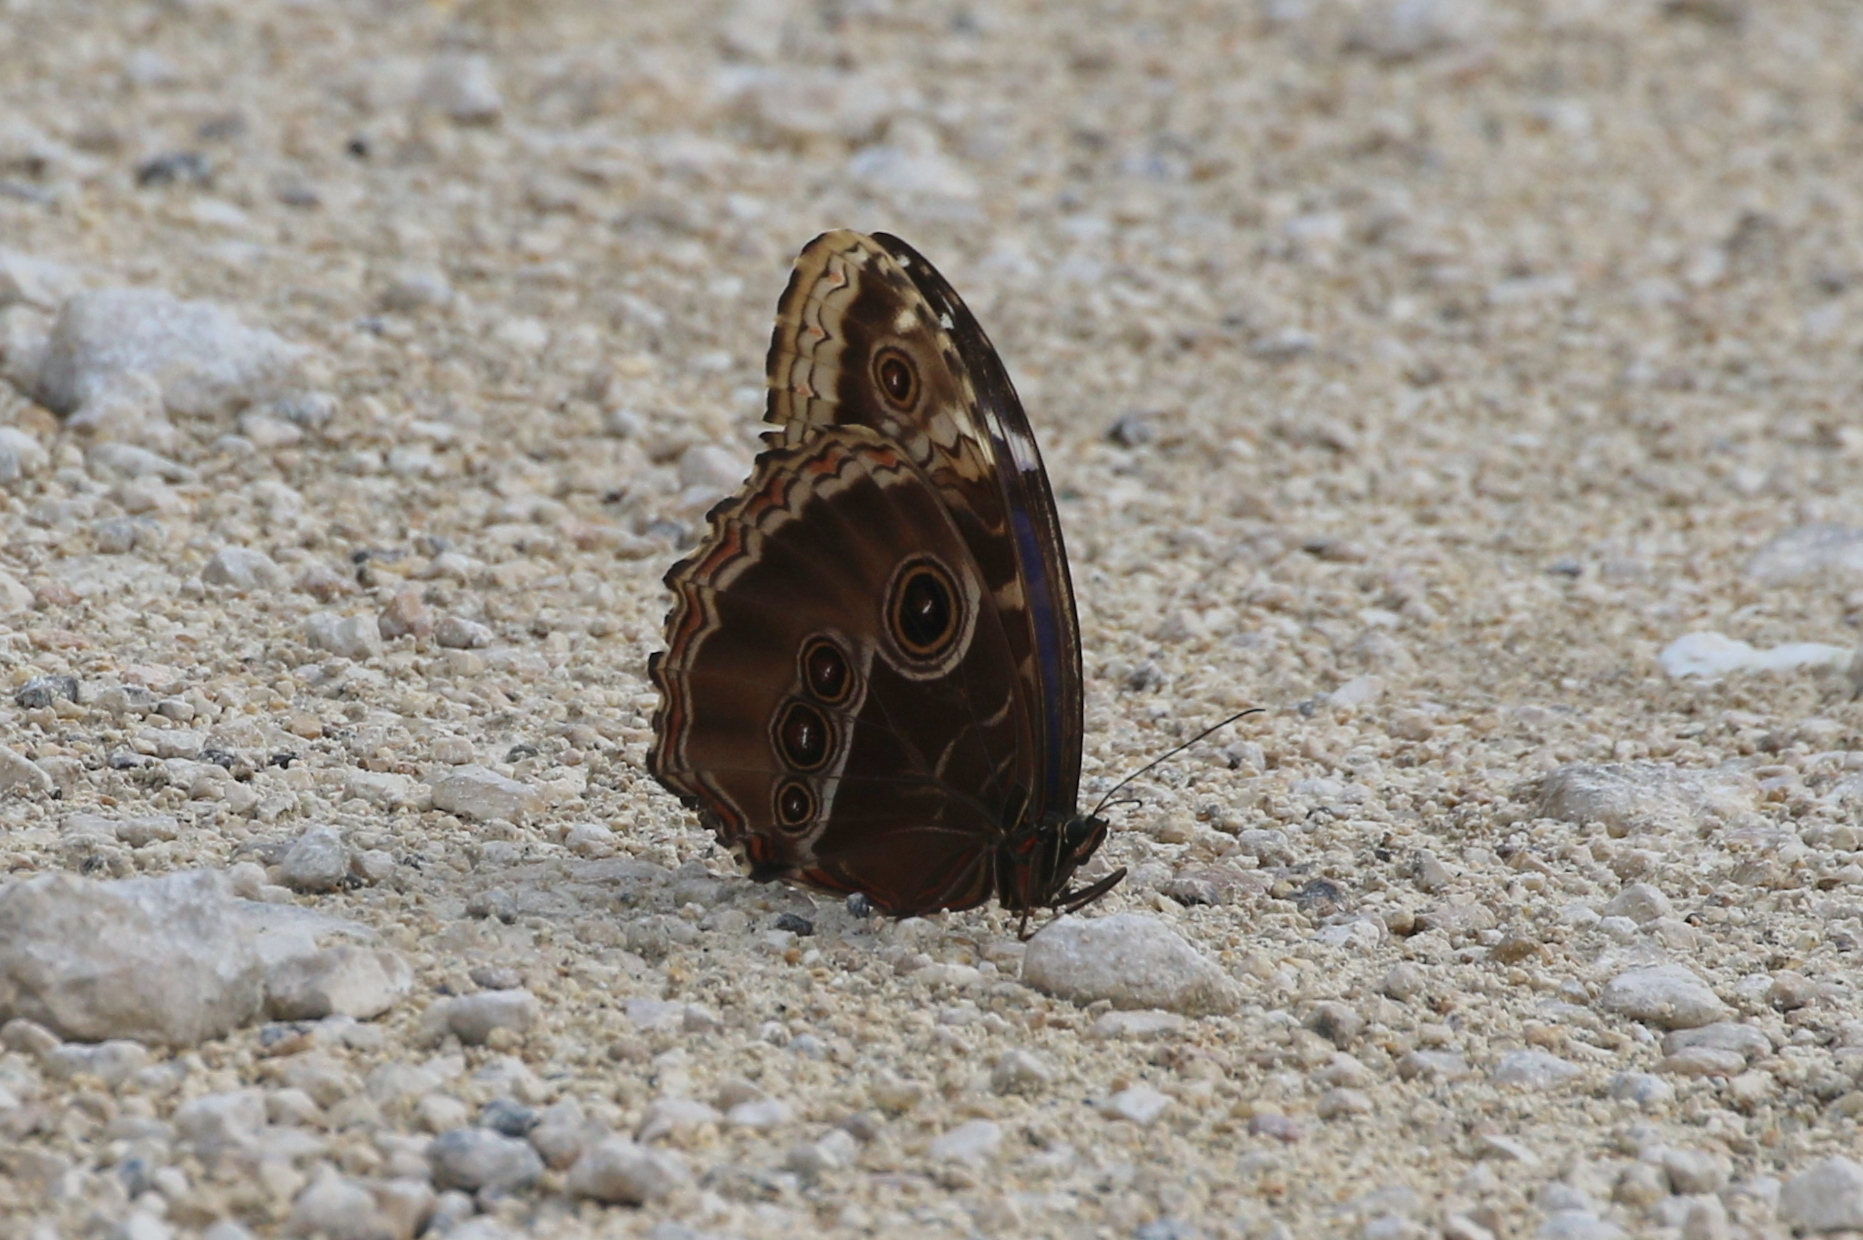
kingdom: Animalia
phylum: Arthropoda
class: Insecta
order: Lepidoptera
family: Nymphalidae
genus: Morpho
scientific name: Morpho helenor
